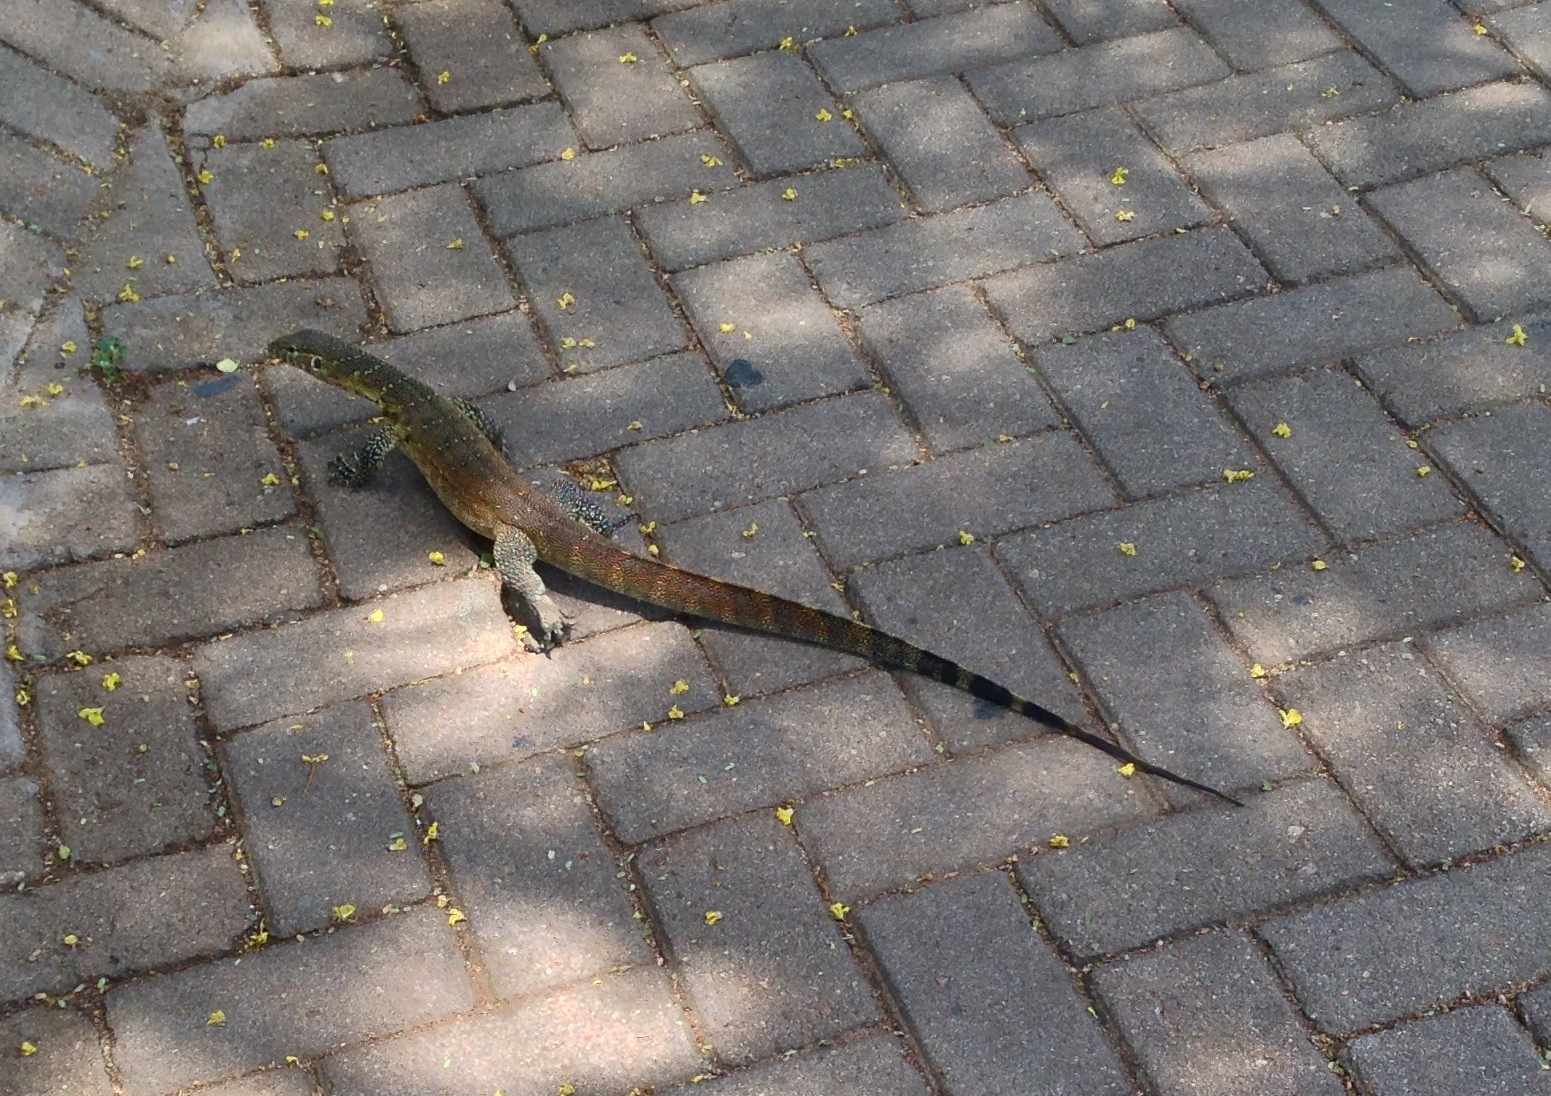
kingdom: Animalia
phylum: Chordata
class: Squamata
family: Varanidae
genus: Varanus
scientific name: Varanus niloticus
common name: Nile monitor
